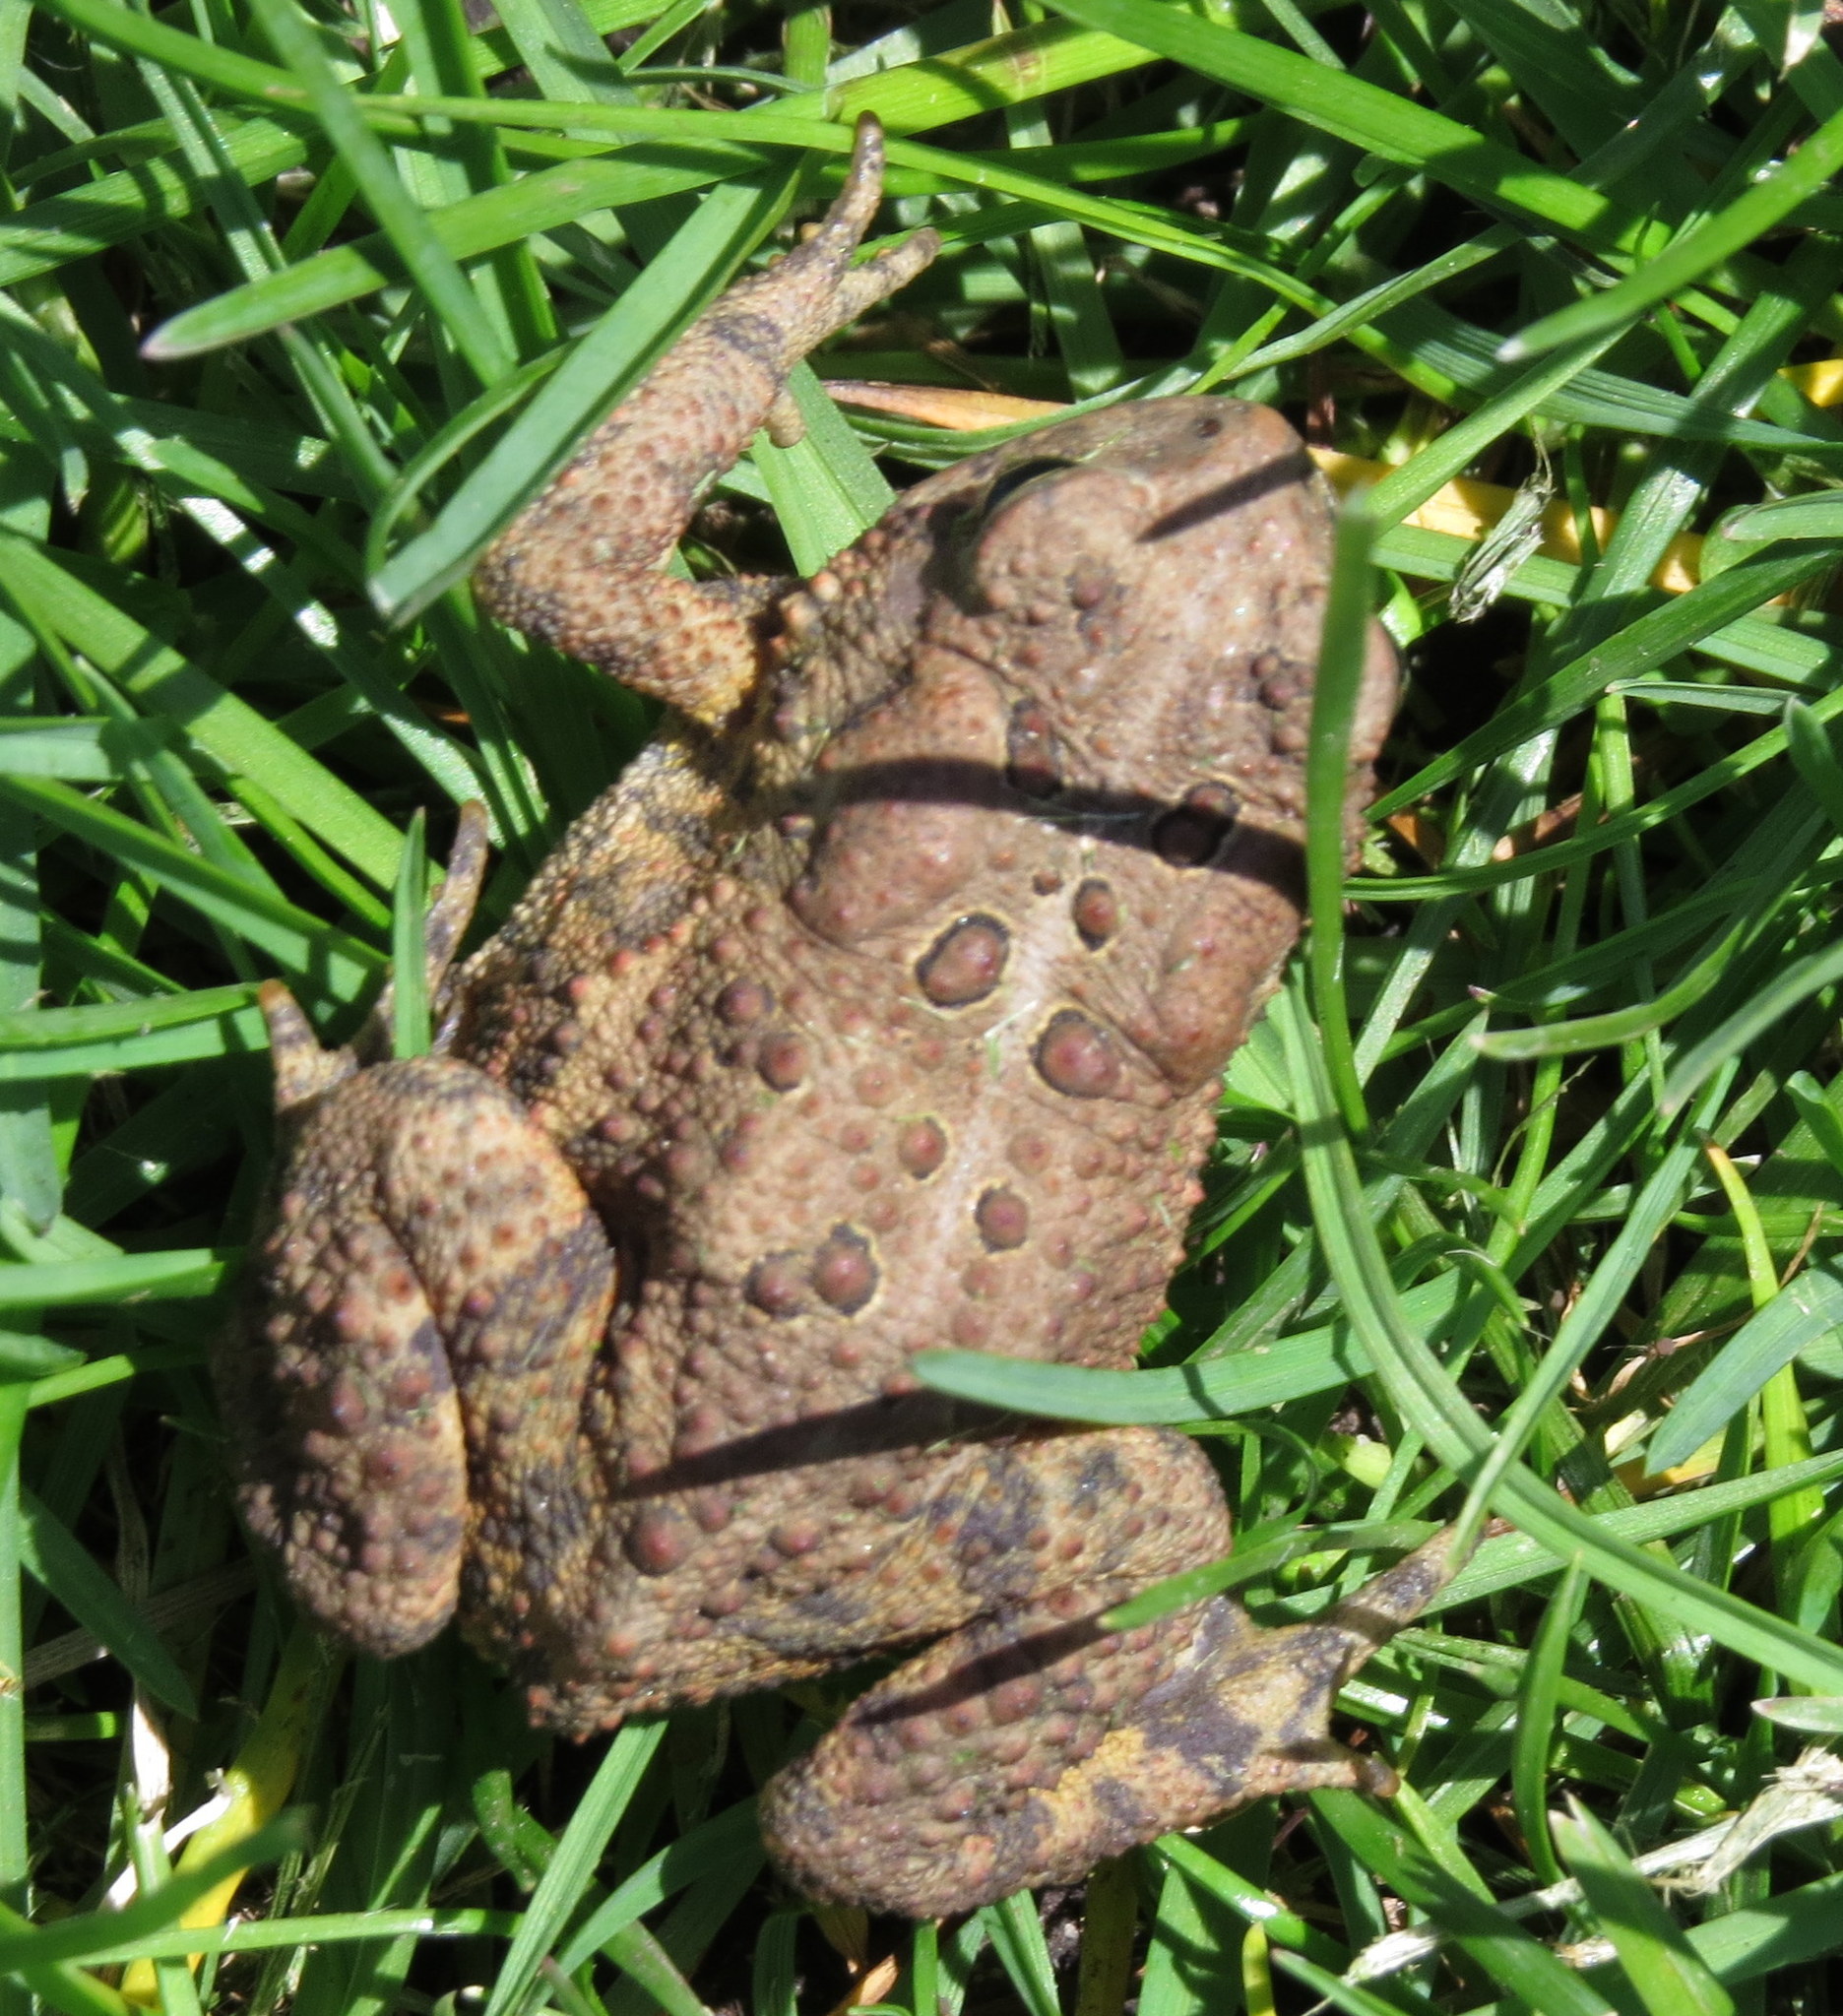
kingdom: Animalia
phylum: Chordata
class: Amphibia
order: Anura
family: Bufonidae
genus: Anaxyrus
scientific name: Anaxyrus americanus
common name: American toad
